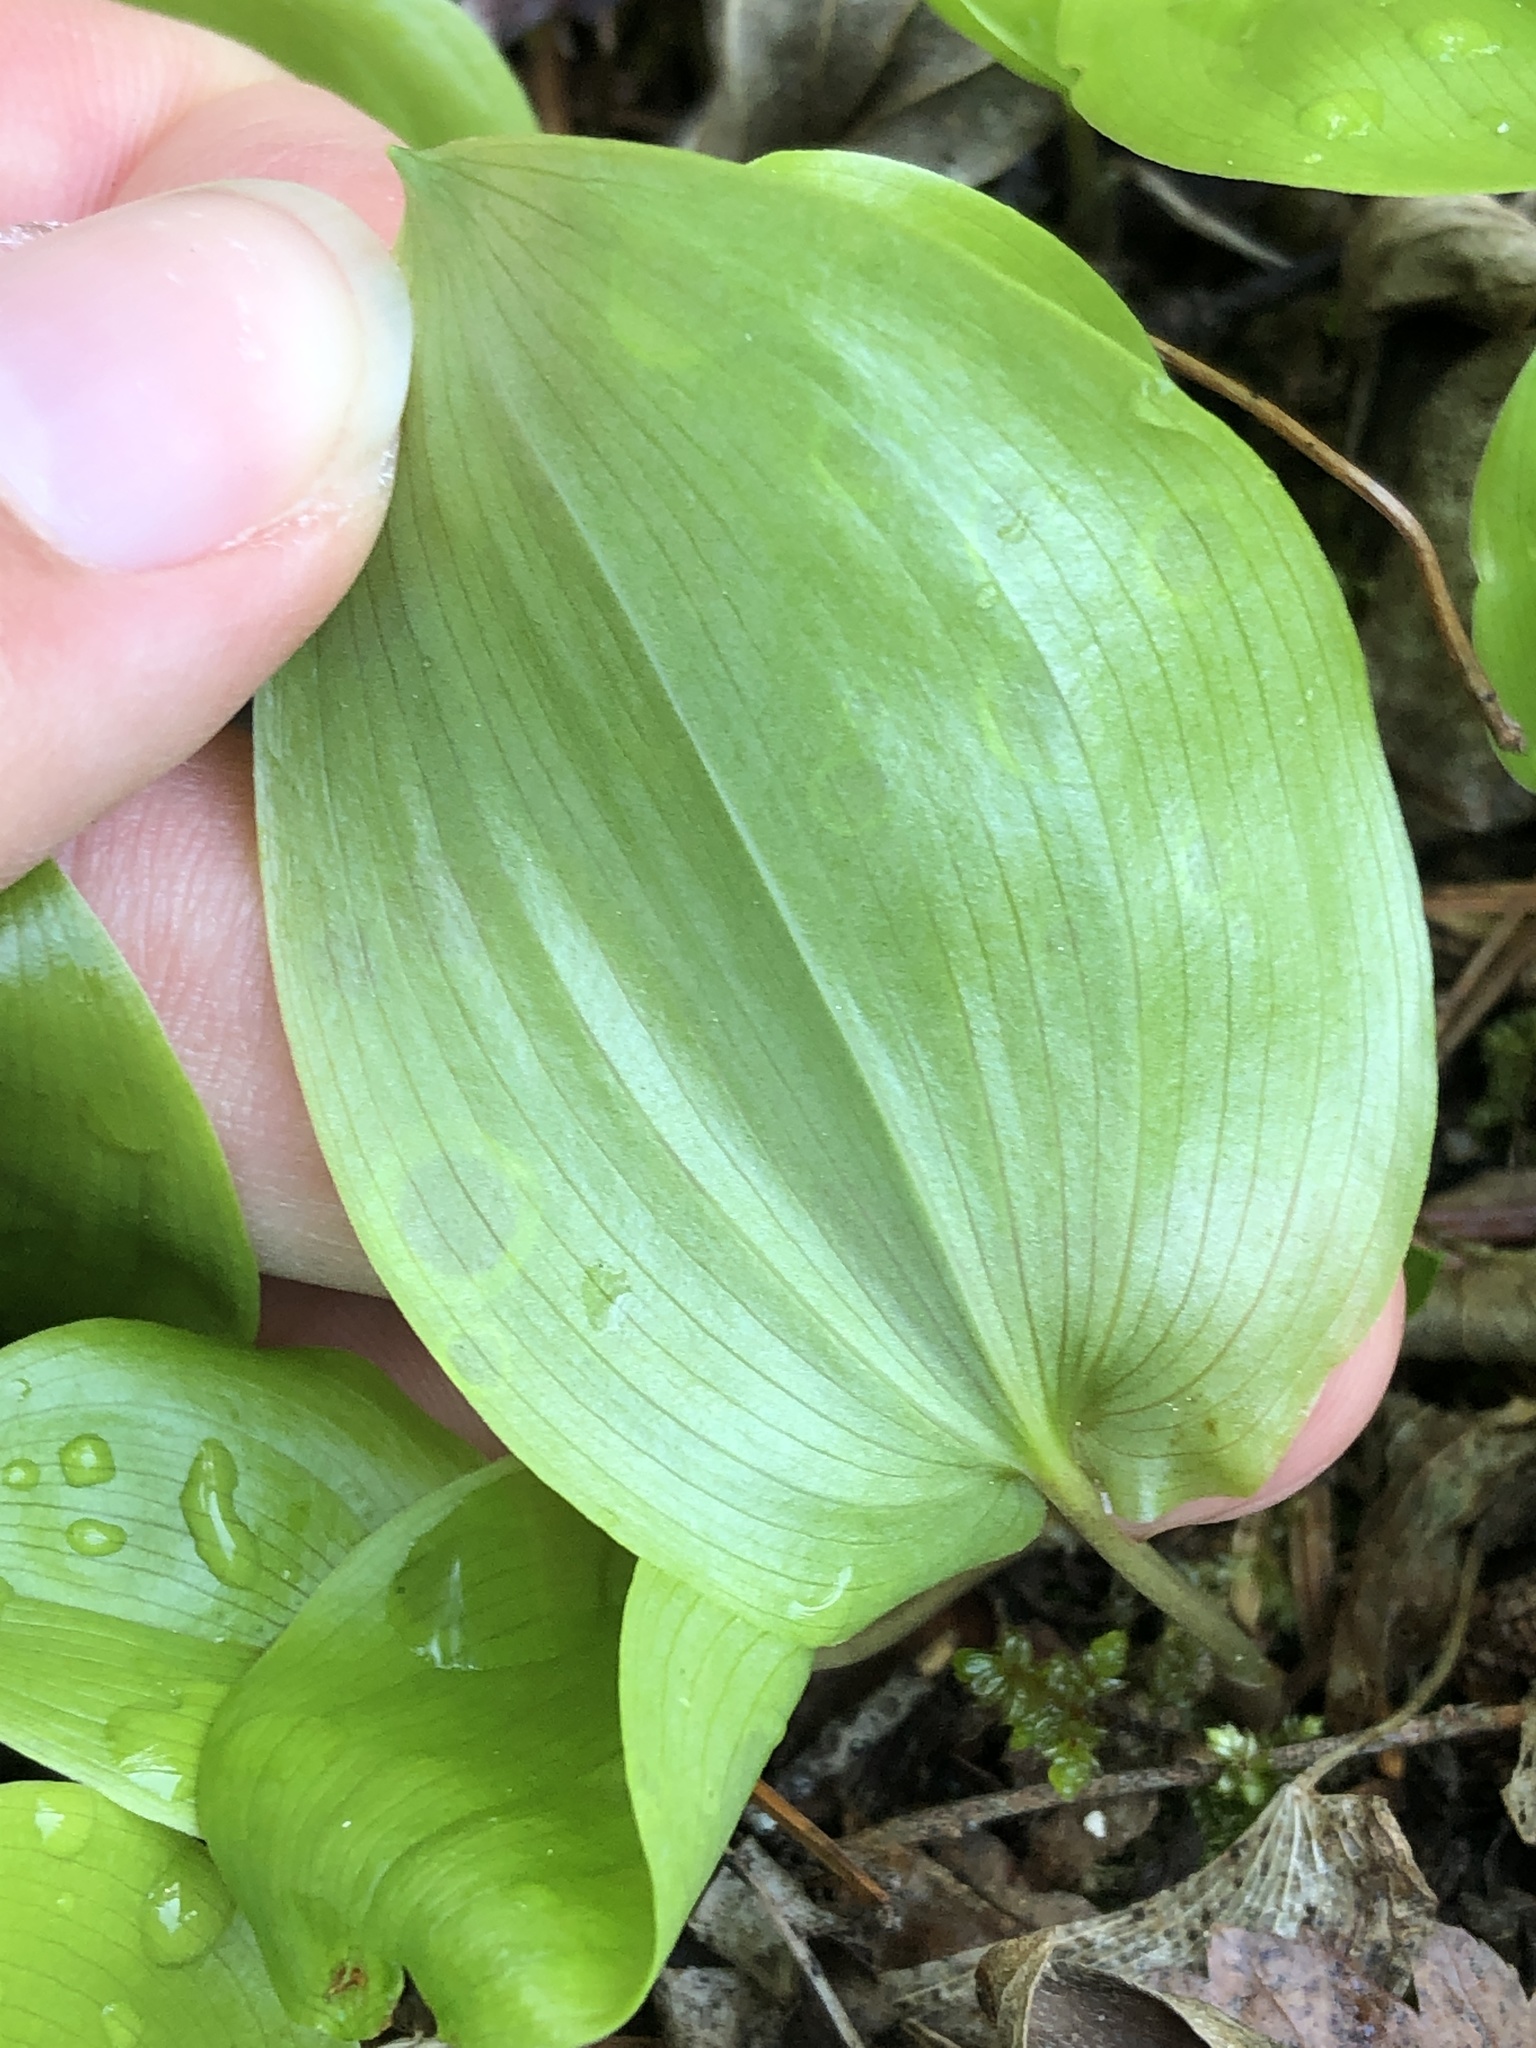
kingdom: Plantae
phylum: Tracheophyta
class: Liliopsida
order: Asparagales
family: Asparagaceae
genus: Maianthemum
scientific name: Maianthemum canadense
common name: False lily-of-the-valley
